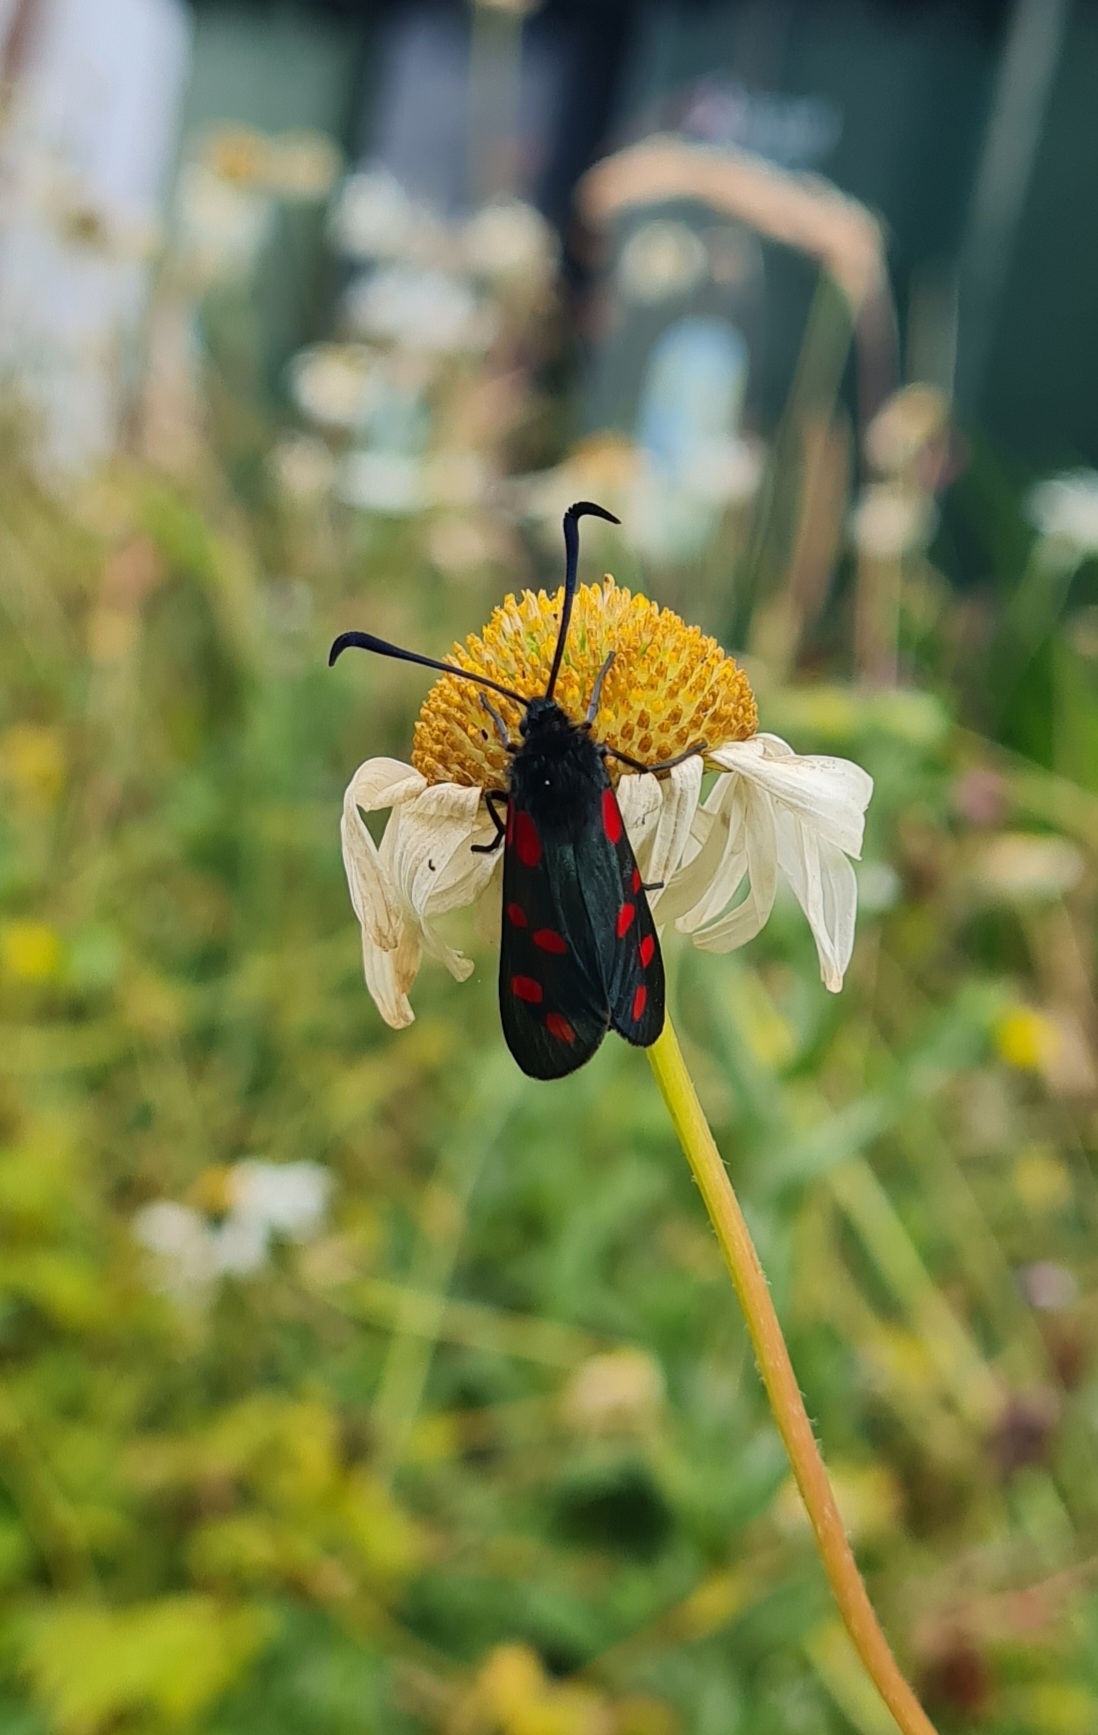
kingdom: Animalia
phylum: Arthropoda
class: Insecta
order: Lepidoptera
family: Zygaenidae
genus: Zygaena
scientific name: Zygaena filipendulae
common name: Six-spot burnet
